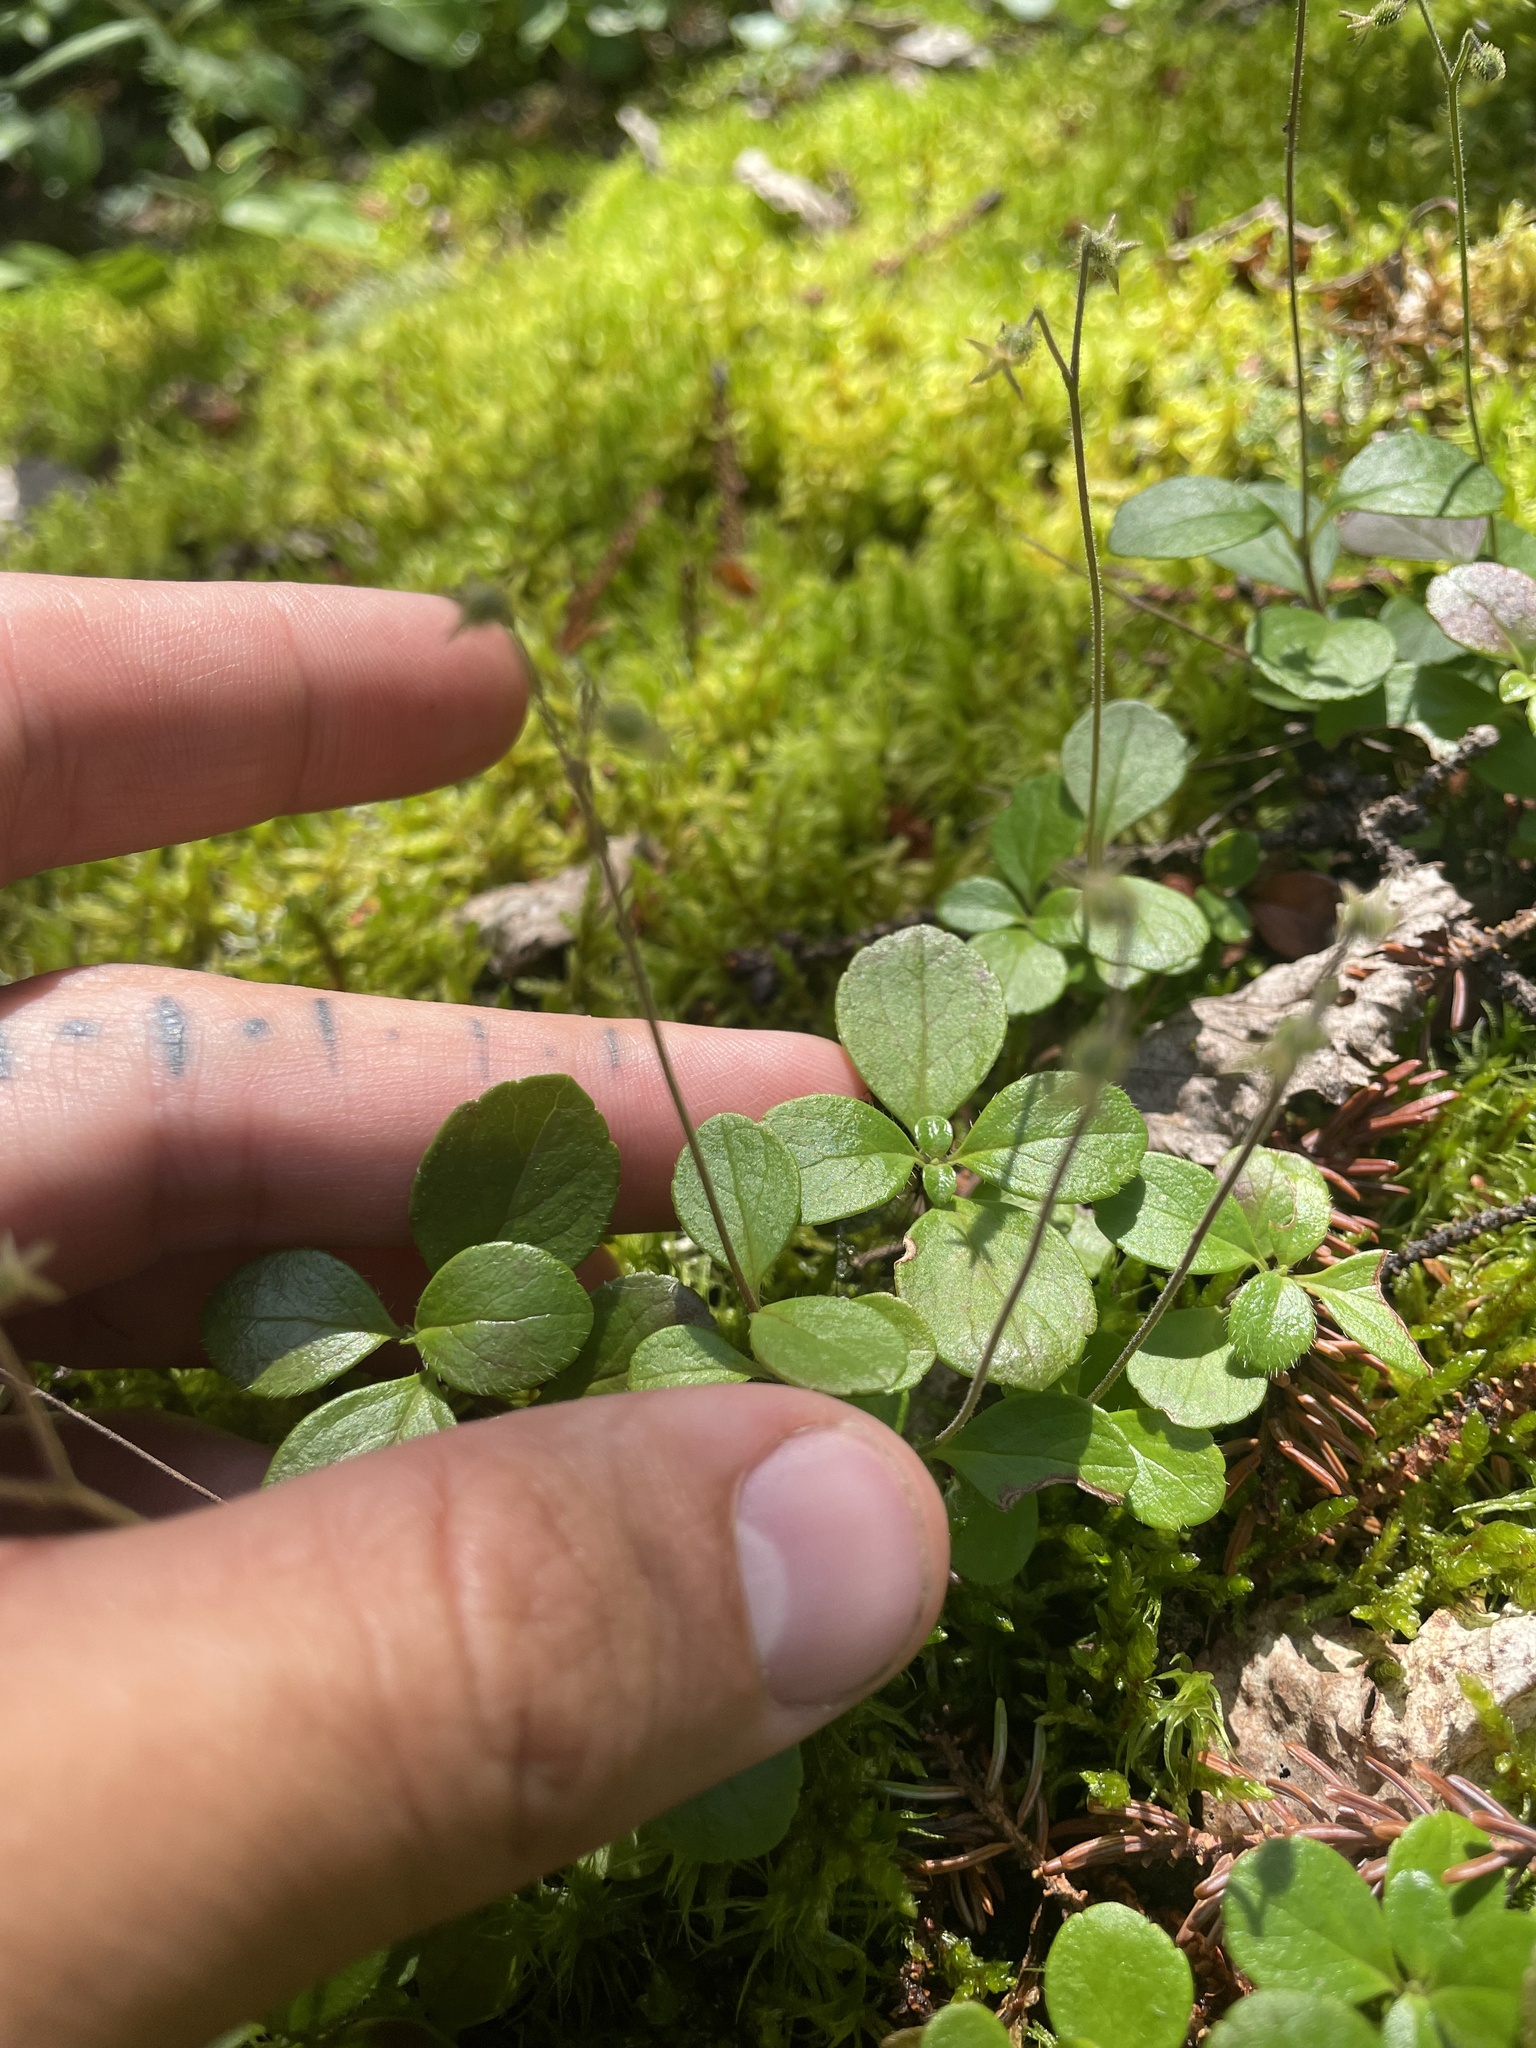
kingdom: Plantae
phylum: Tracheophyta
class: Magnoliopsida
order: Dipsacales
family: Caprifoliaceae
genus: Linnaea
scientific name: Linnaea borealis
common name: Twinflower
